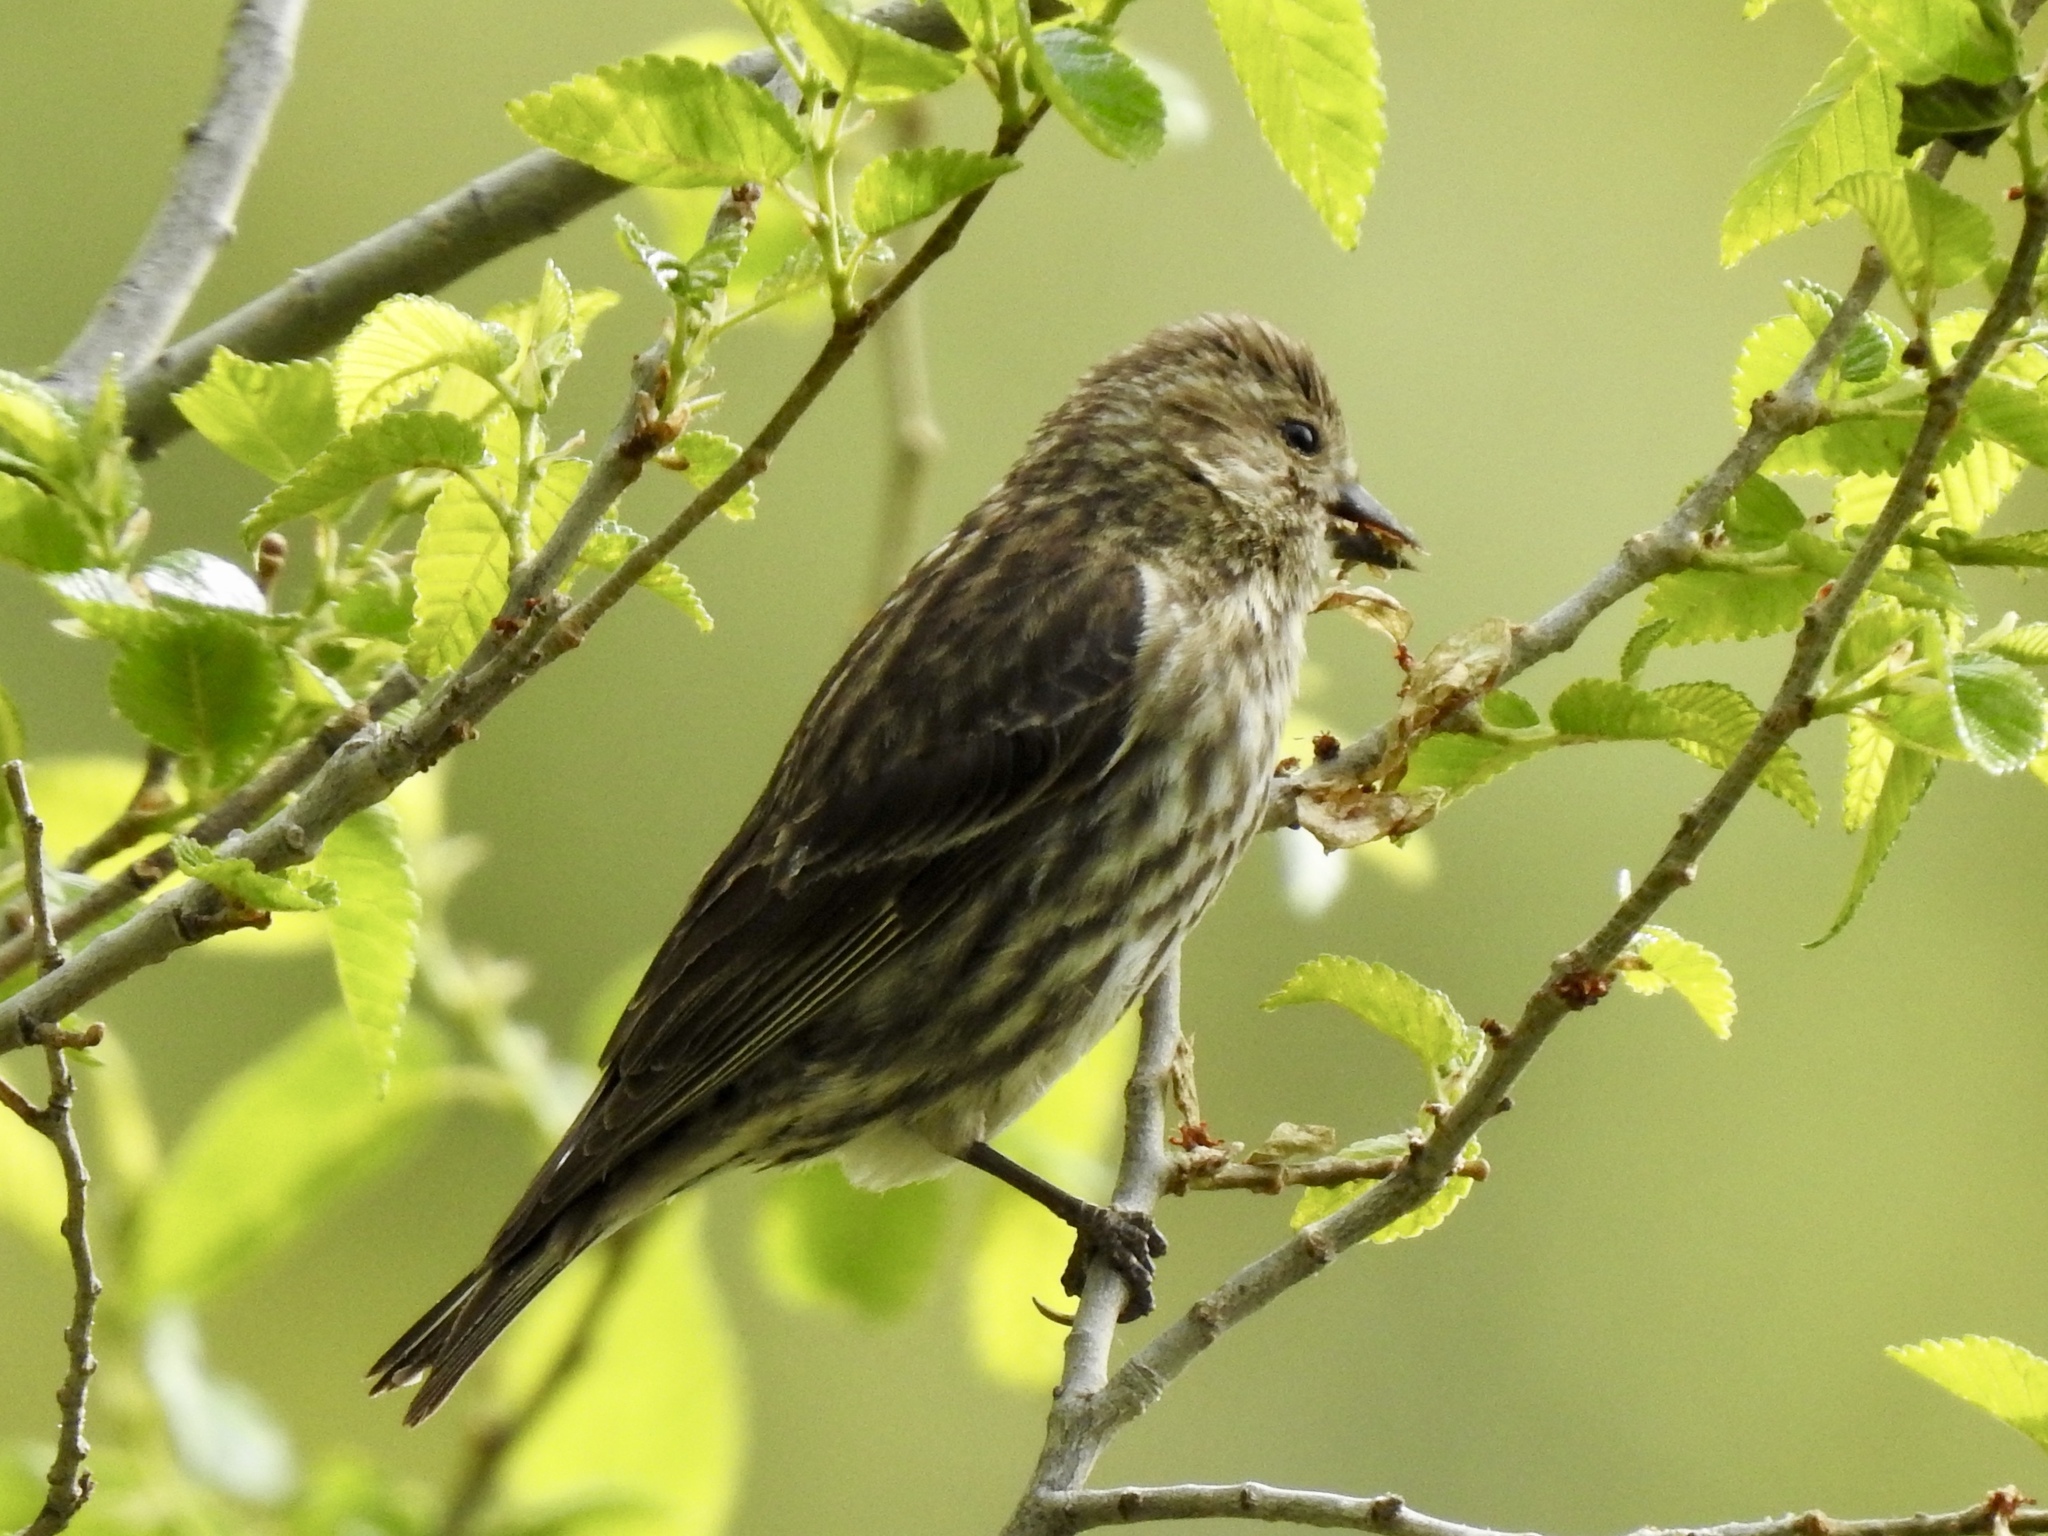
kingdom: Animalia
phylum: Chordata
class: Aves
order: Passeriformes
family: Fringillidae
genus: Spinus
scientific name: Spinus pinus
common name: Pine siskin
